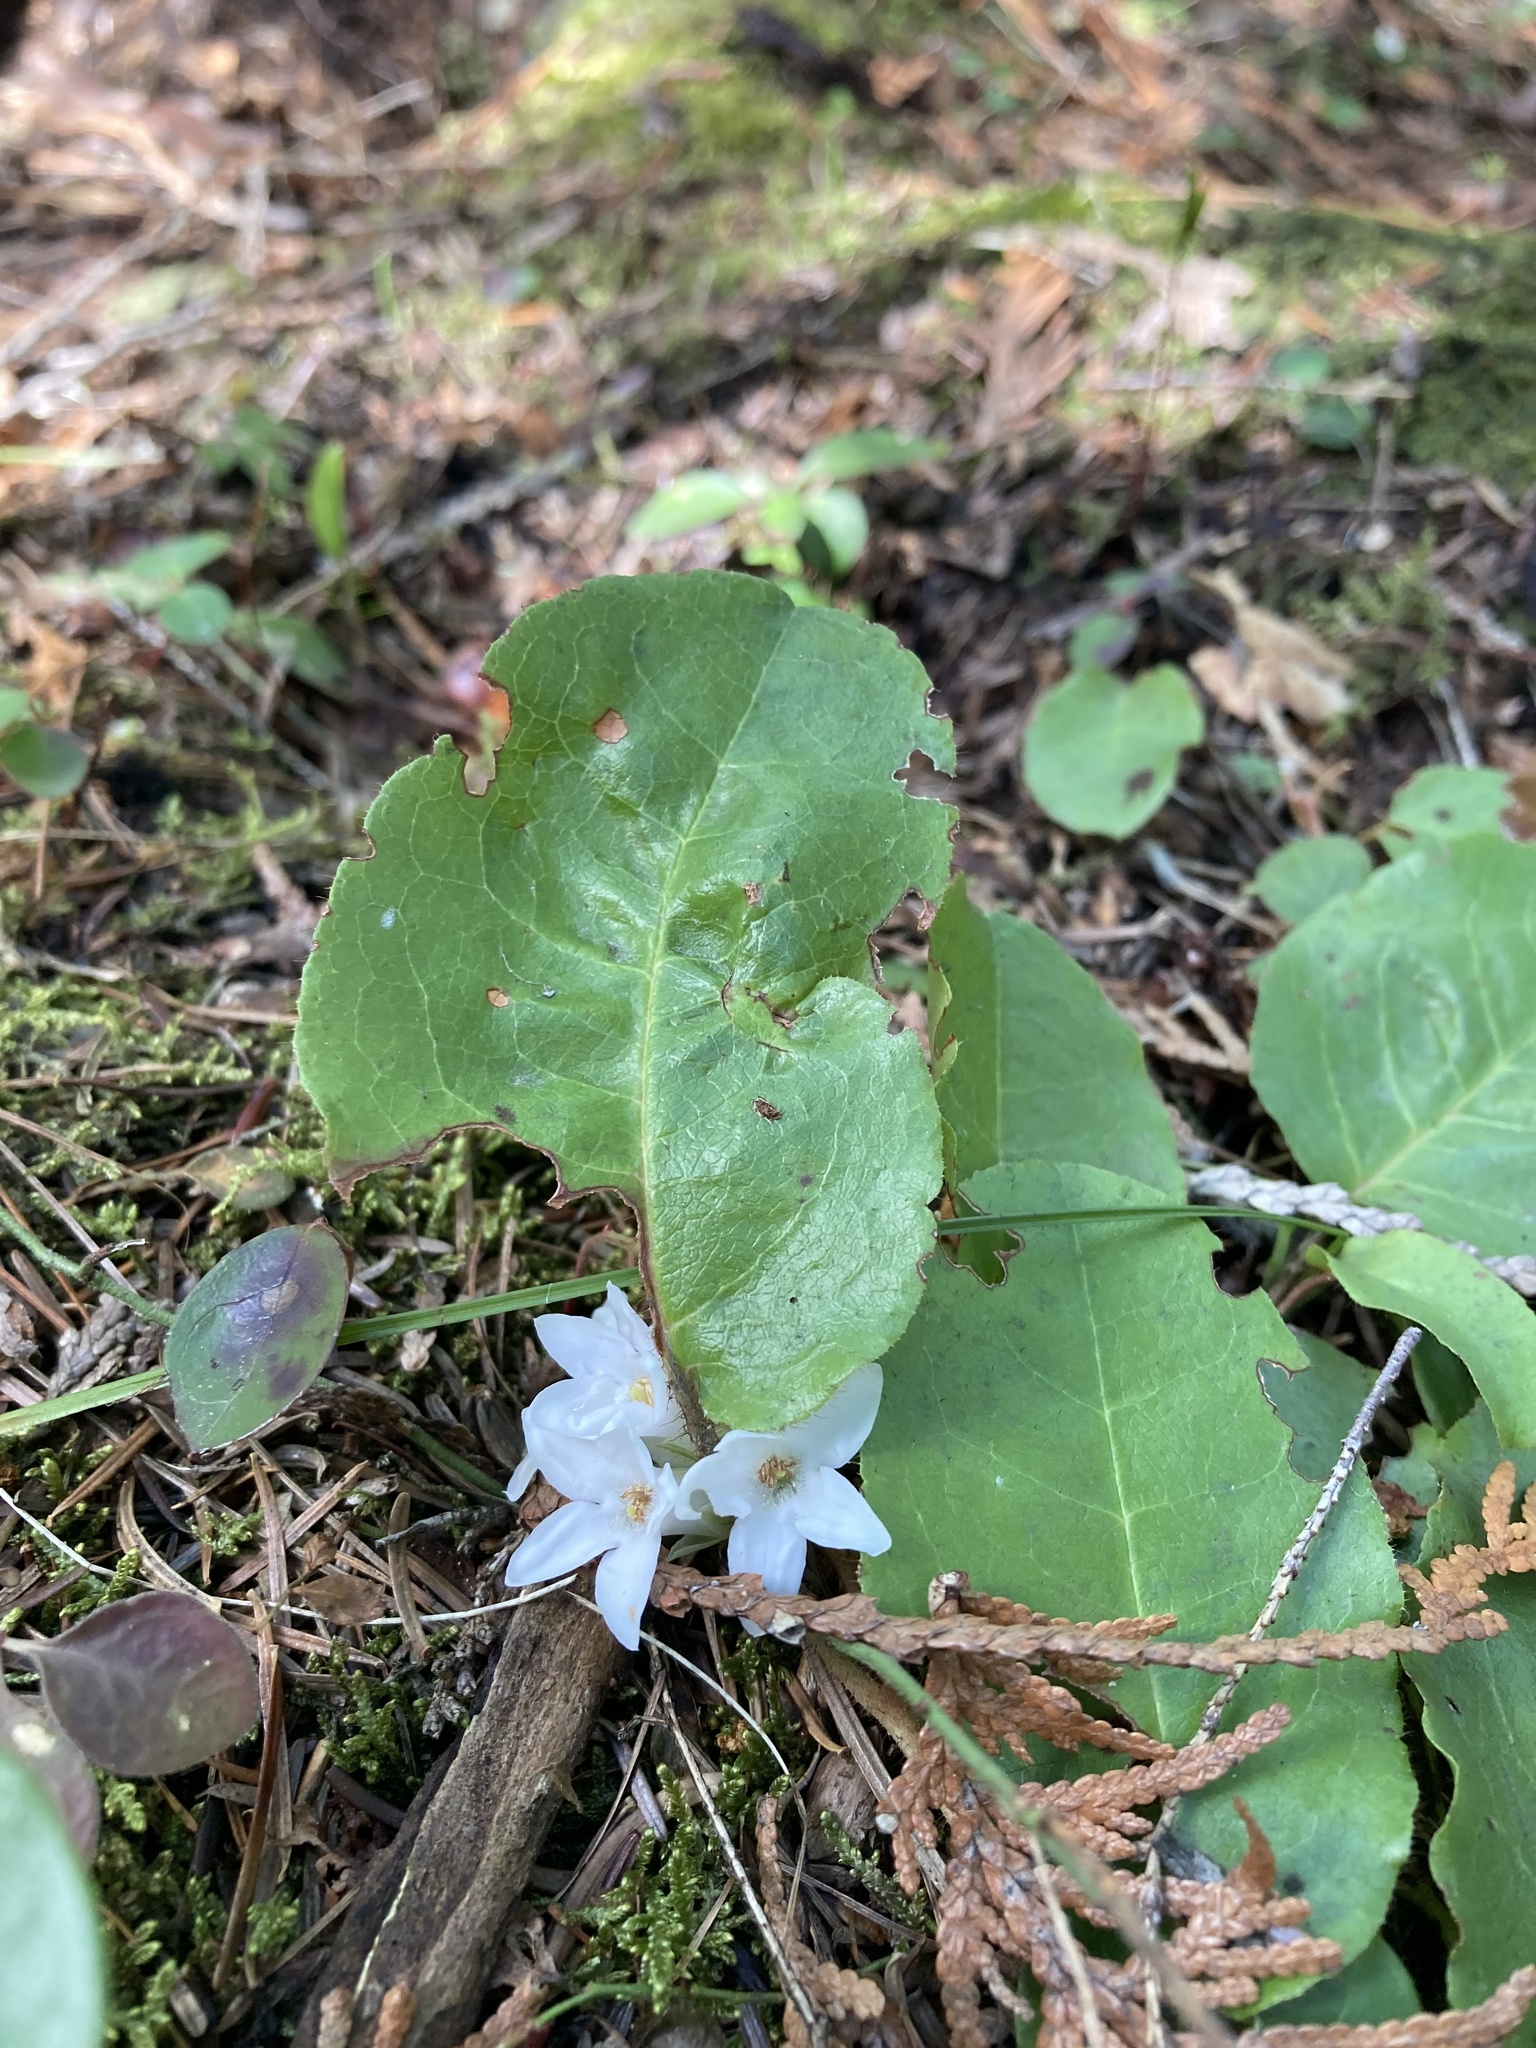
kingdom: Plantae
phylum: Tracheophyta
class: Magnoliopsida
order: Ericales
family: Ericaceae
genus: Epigaea
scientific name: Epigaea repens
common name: Gravelroot
